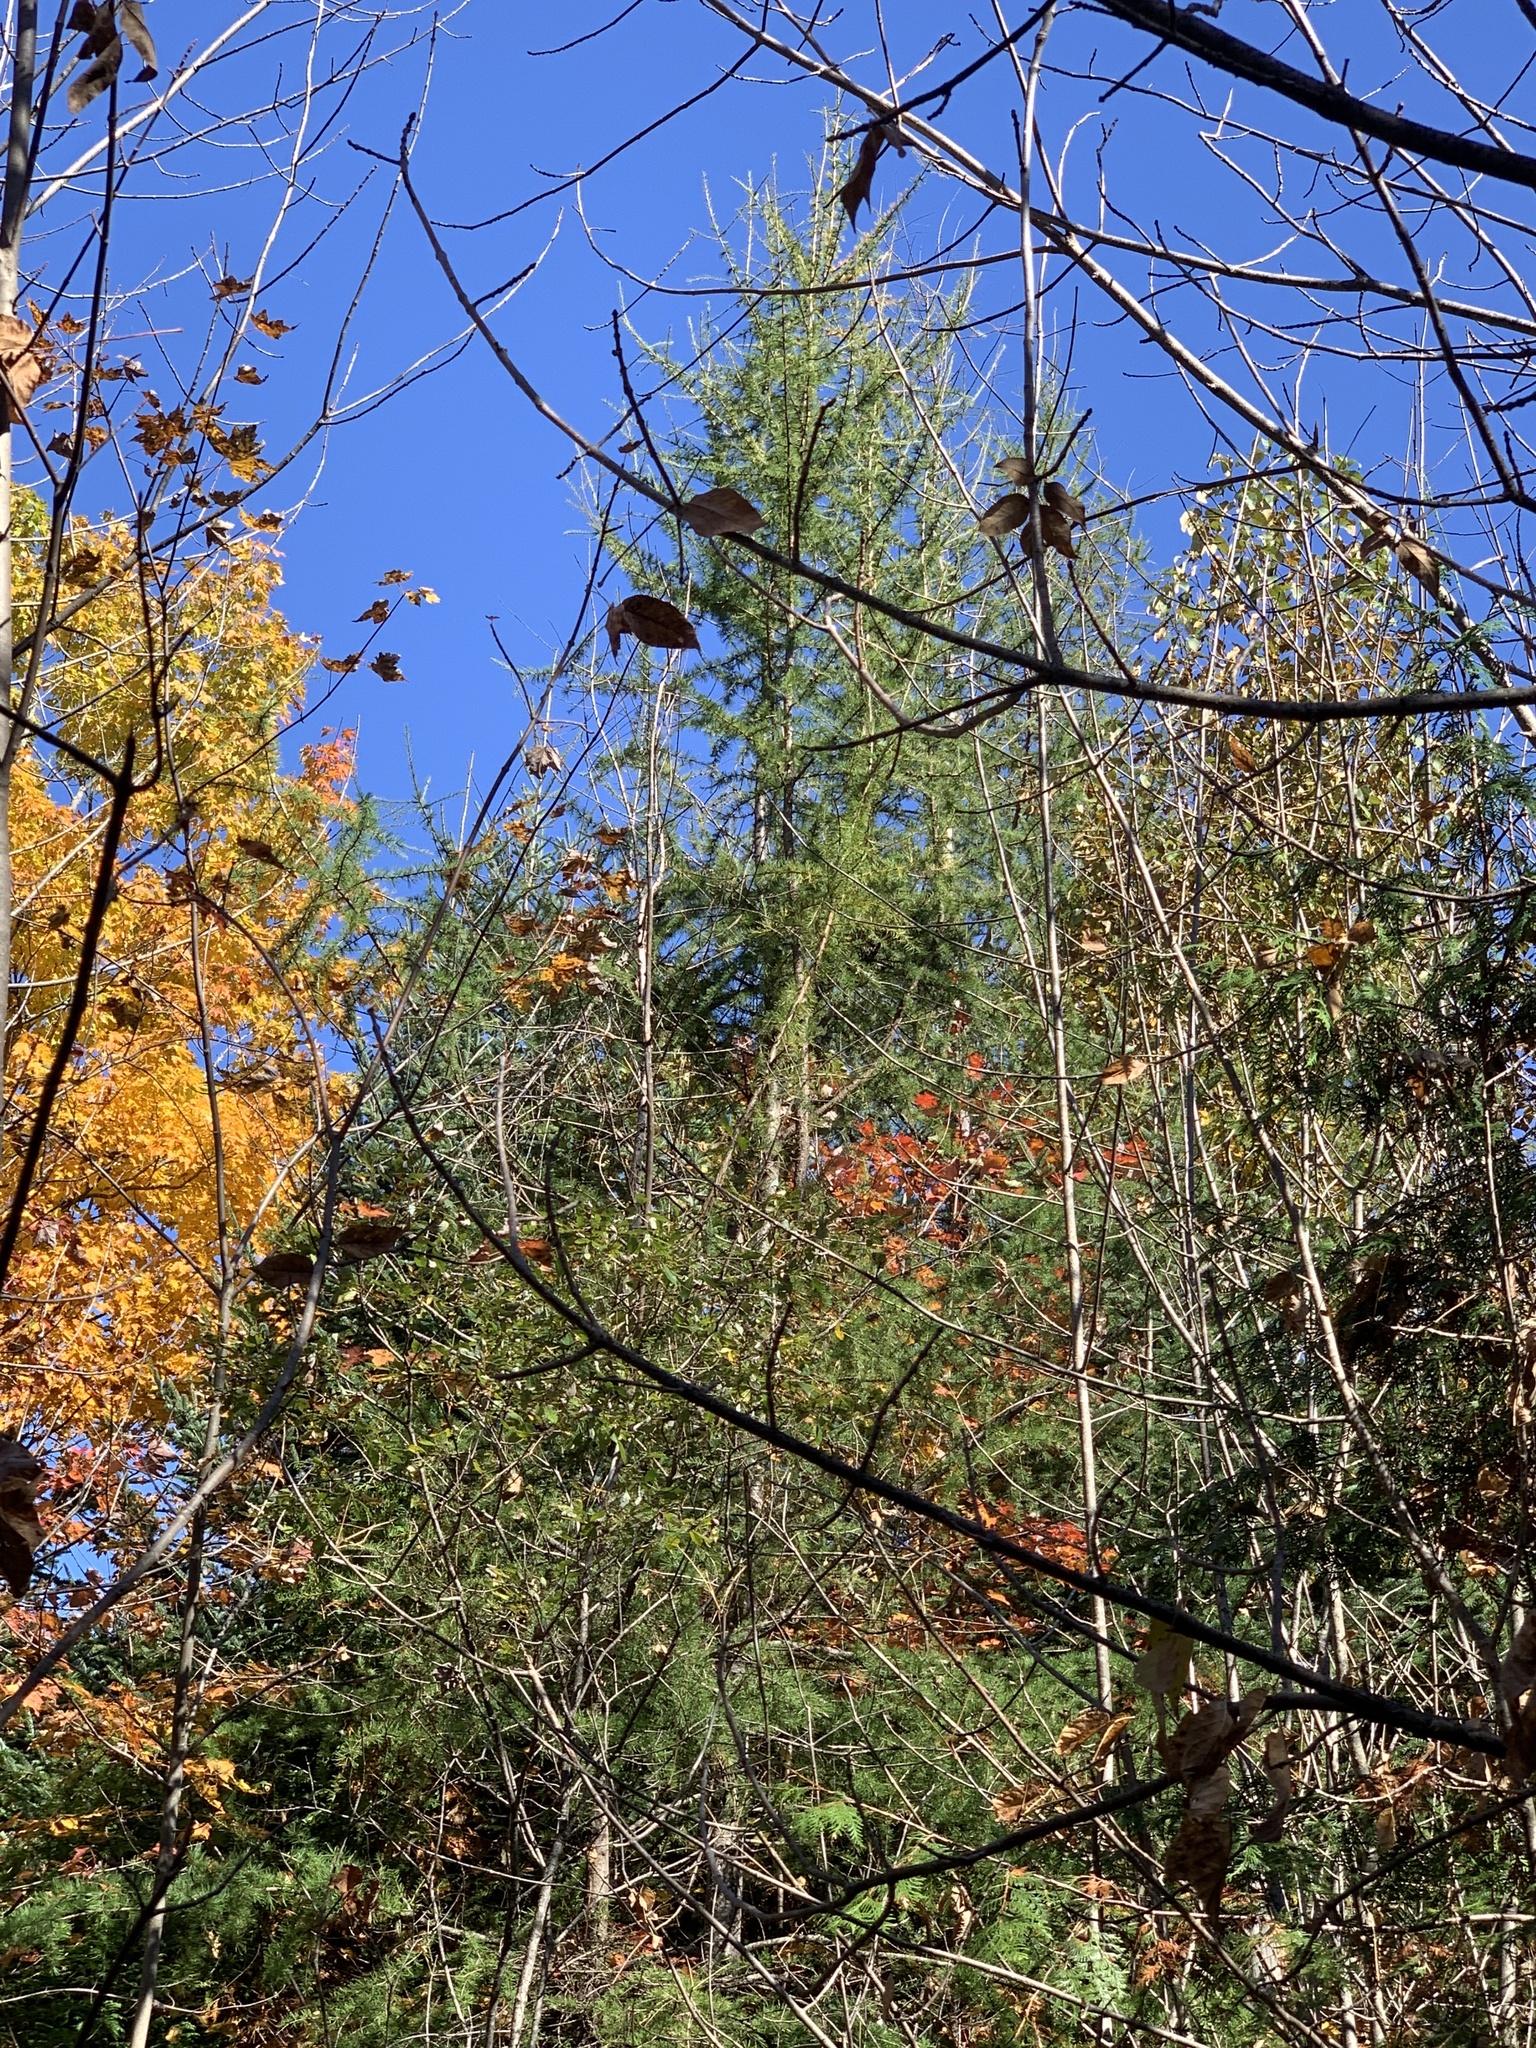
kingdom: Plantae
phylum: Tracheophyta
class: Pinopsida
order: Pinales
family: Pinaceae
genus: Larix
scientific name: Larix laricina
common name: American larch
